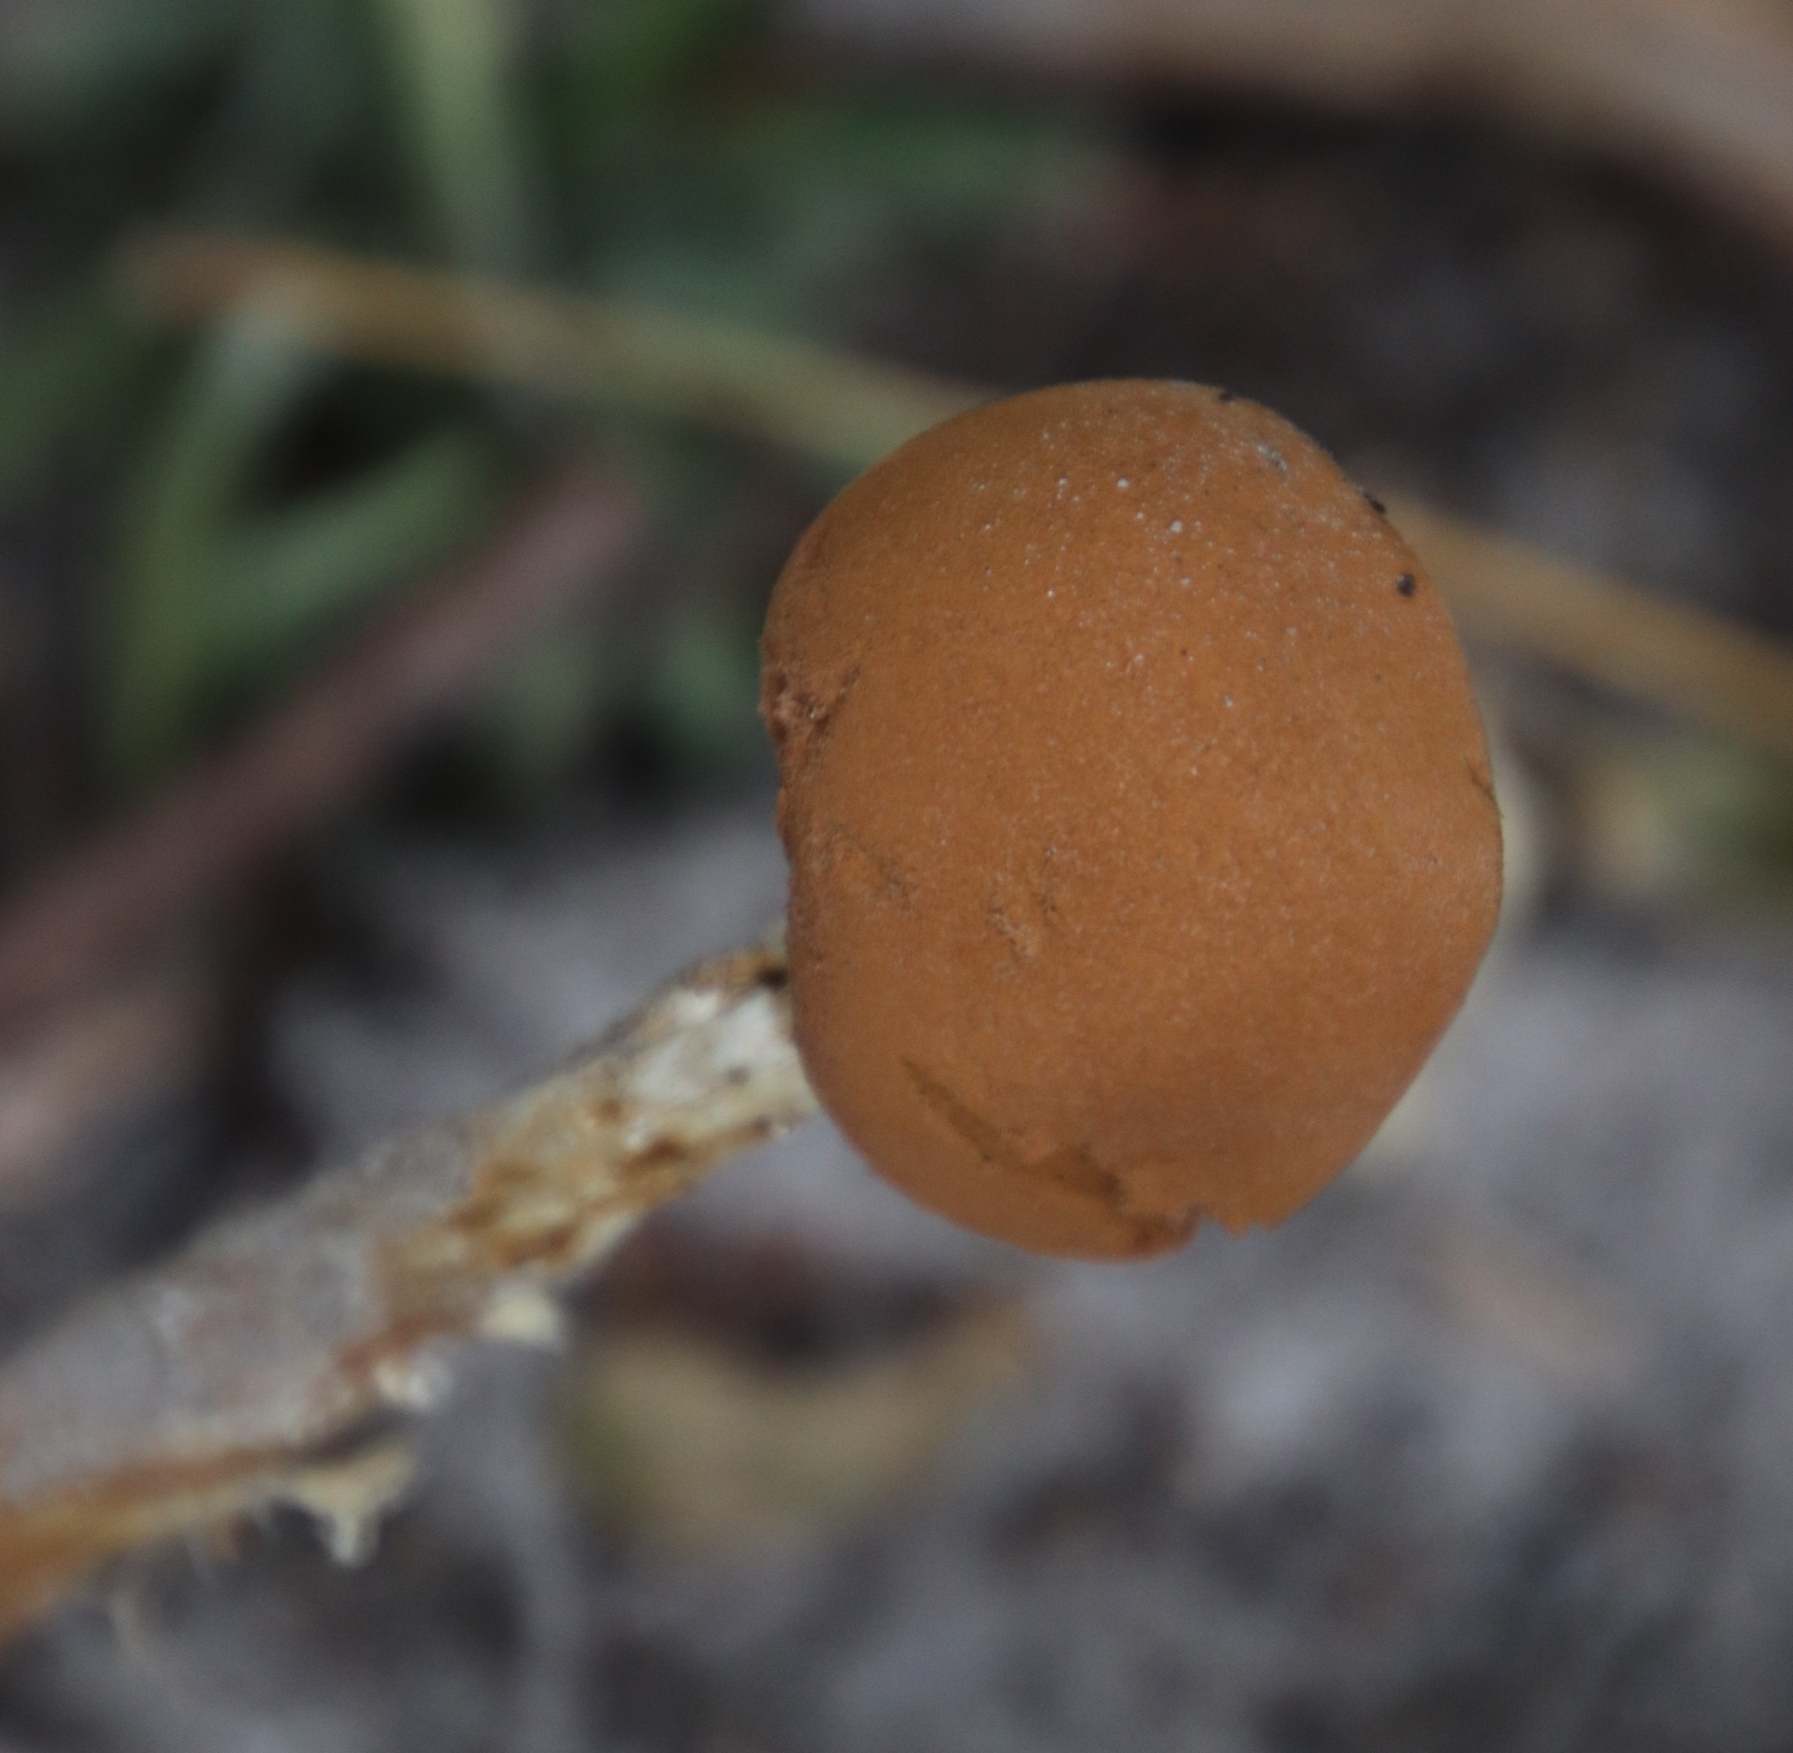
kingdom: Fungi
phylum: Basidiomycota
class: Agaricomycetes
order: Agaricales
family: Agaricaceae
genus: Battarrea
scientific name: Battarrea phalloides
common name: Sandy stiltball
